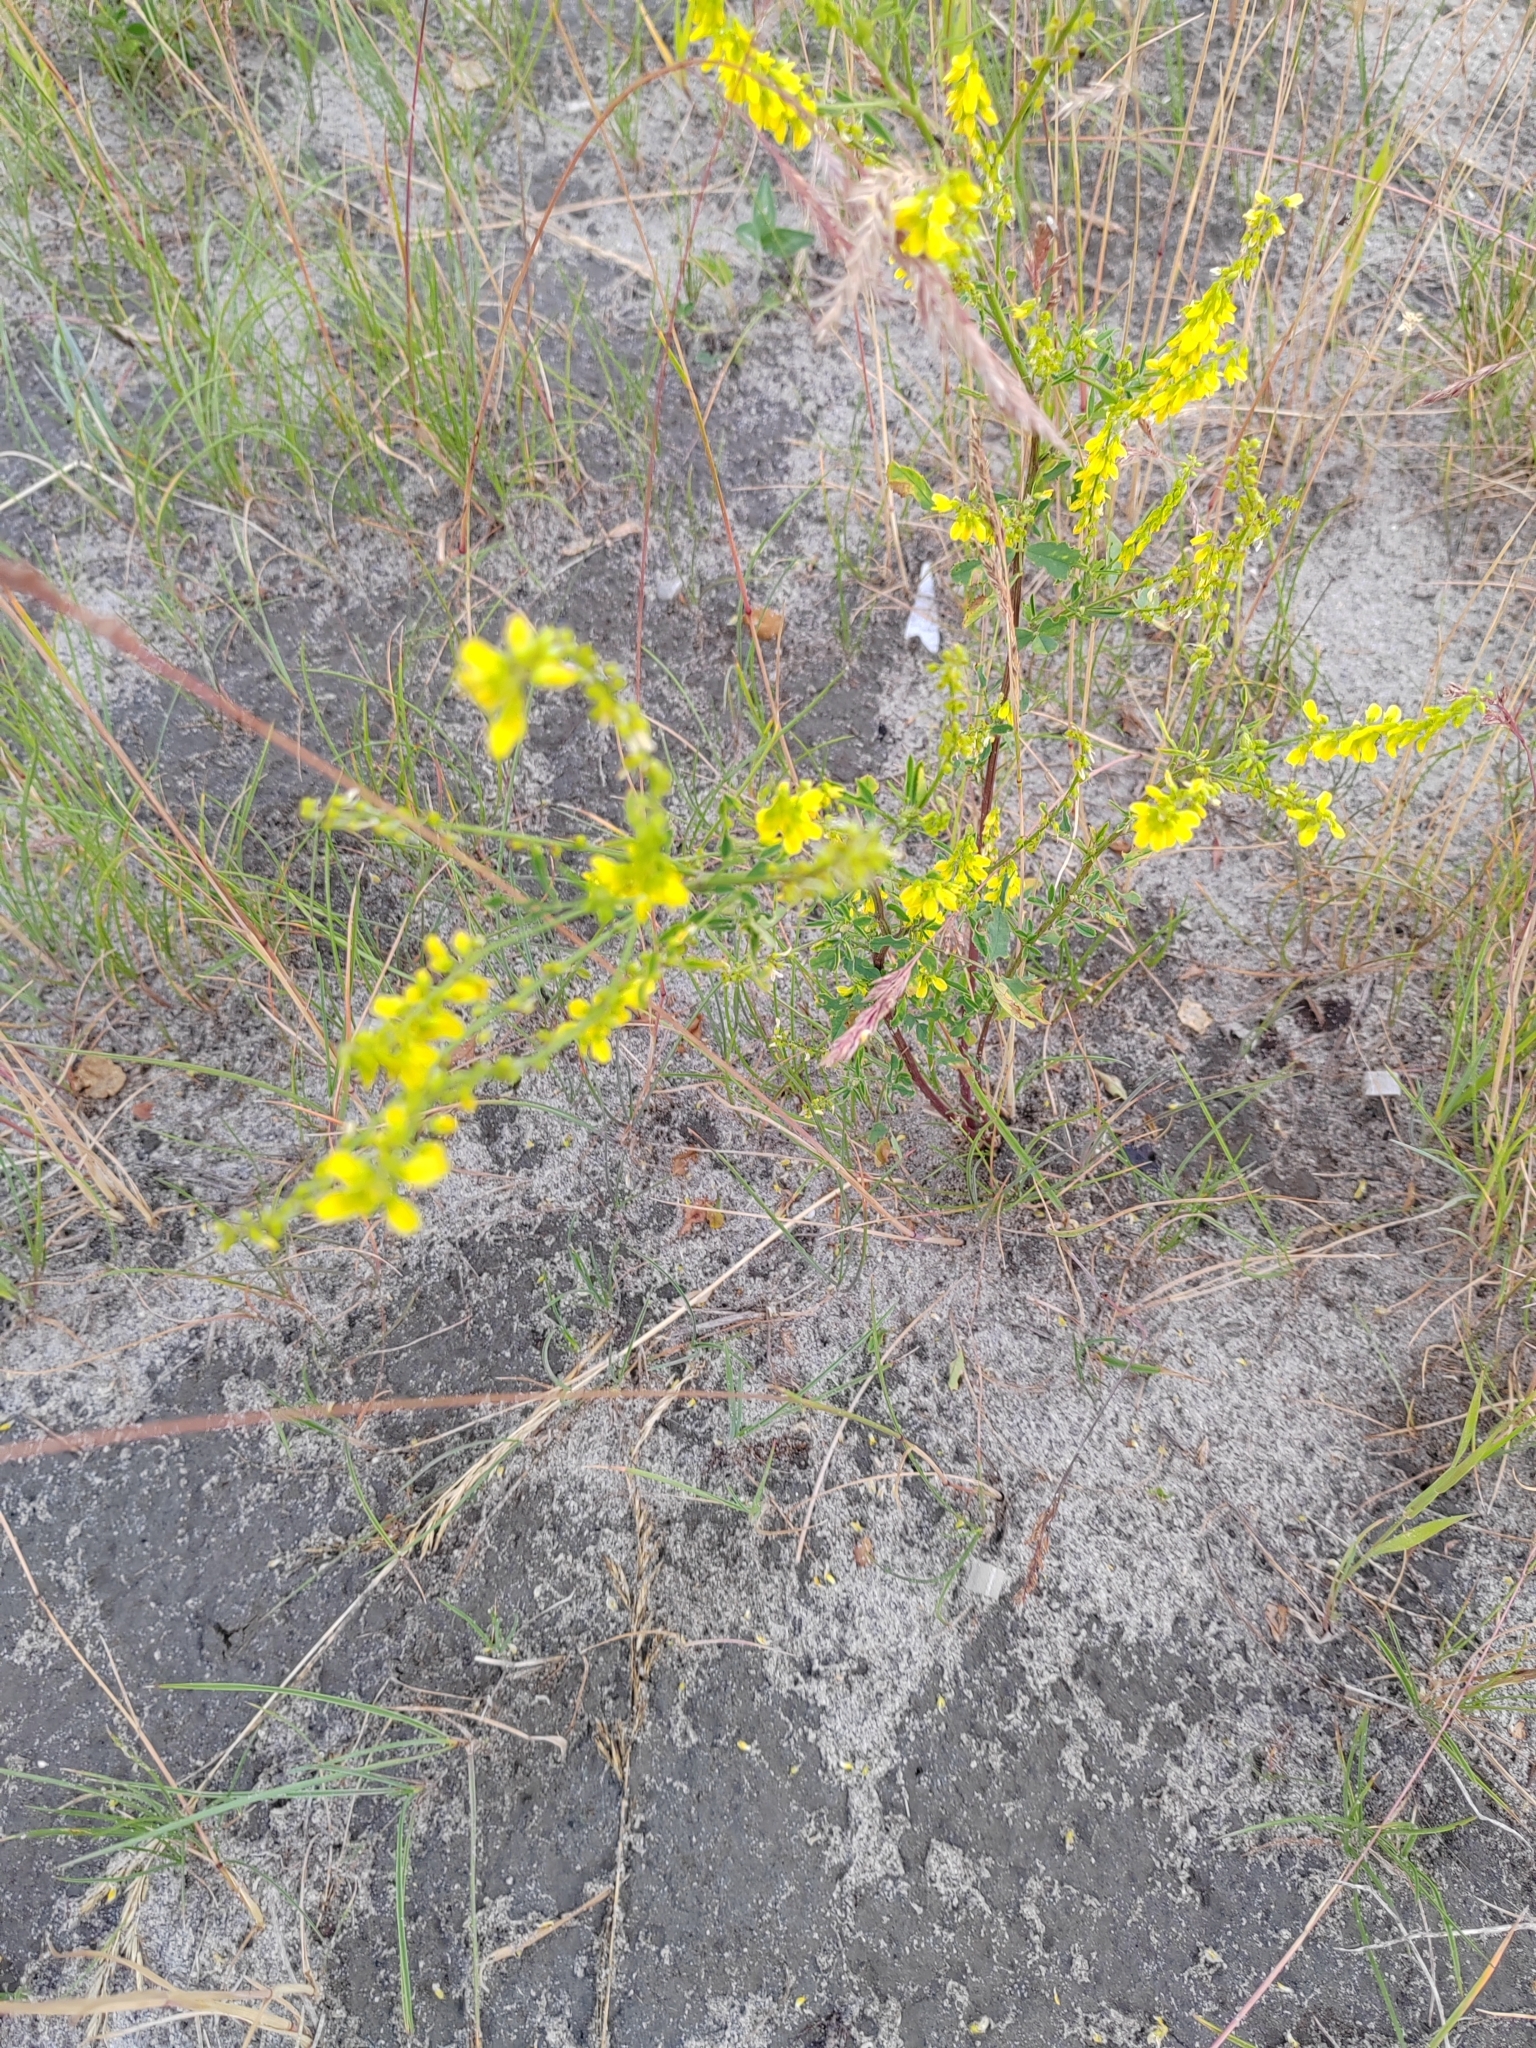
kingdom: Plantae
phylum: Tracheophyta
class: Magnoliopsida
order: Fabales
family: Fabaceae
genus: Melilotus
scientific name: Melilotus officinalis
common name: Sweetclover
